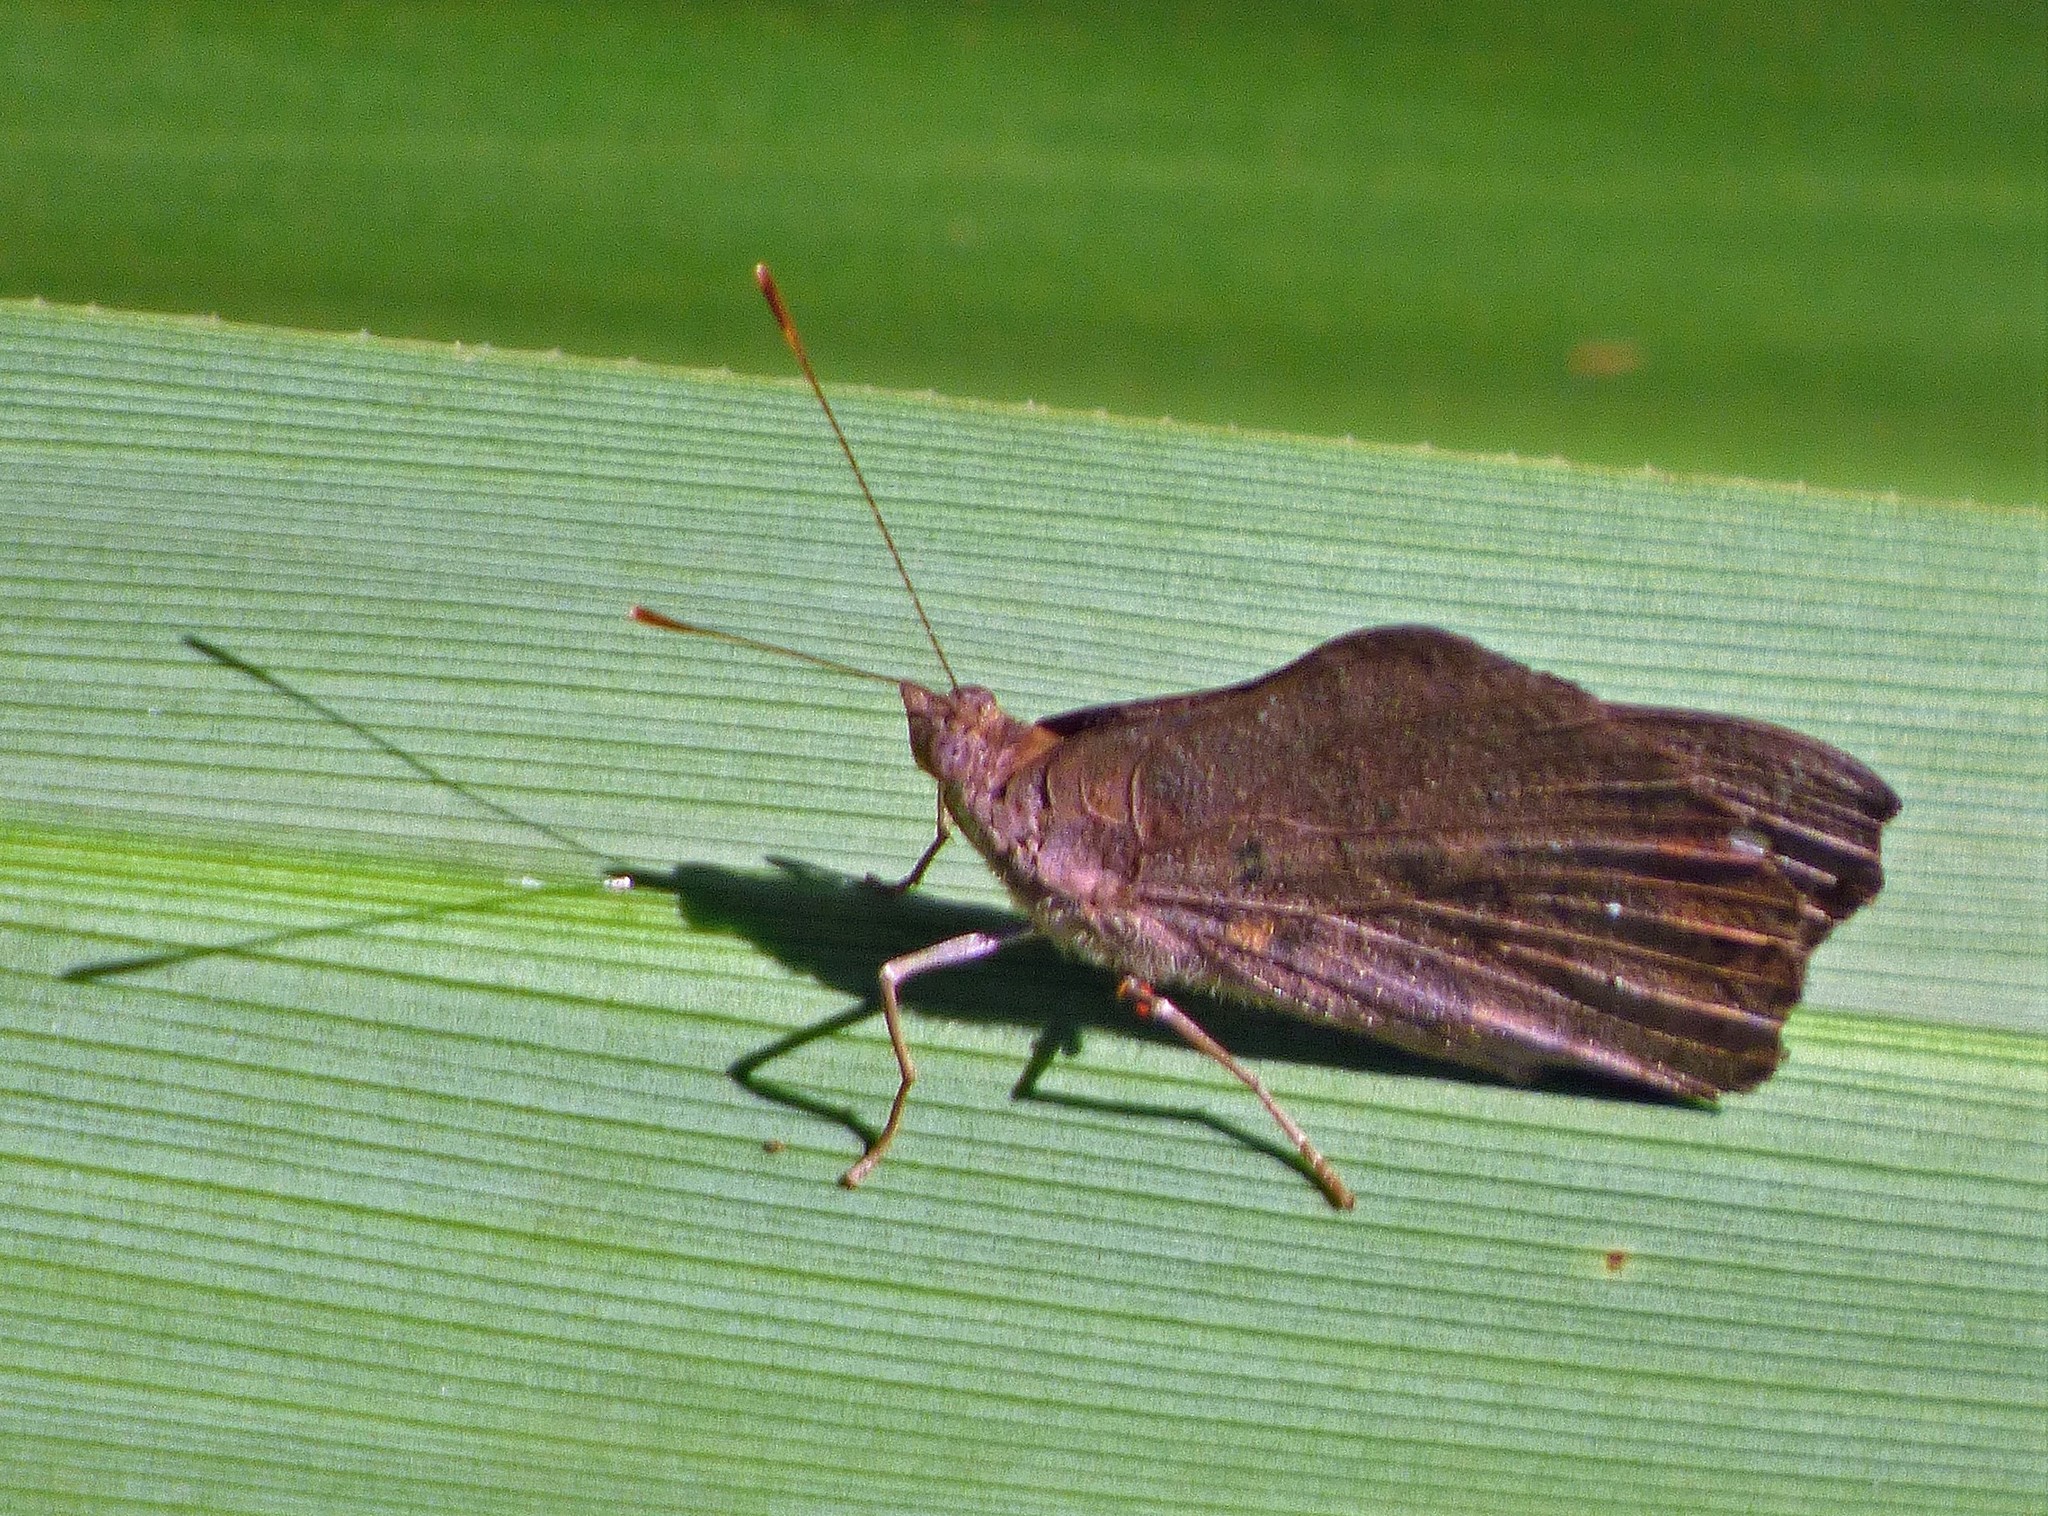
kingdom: Animalia
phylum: Arthropoda
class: Insecta
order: Lepidoptera
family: Nymphalidae
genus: Eunica
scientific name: Eunica tatila
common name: Florida purplewing
